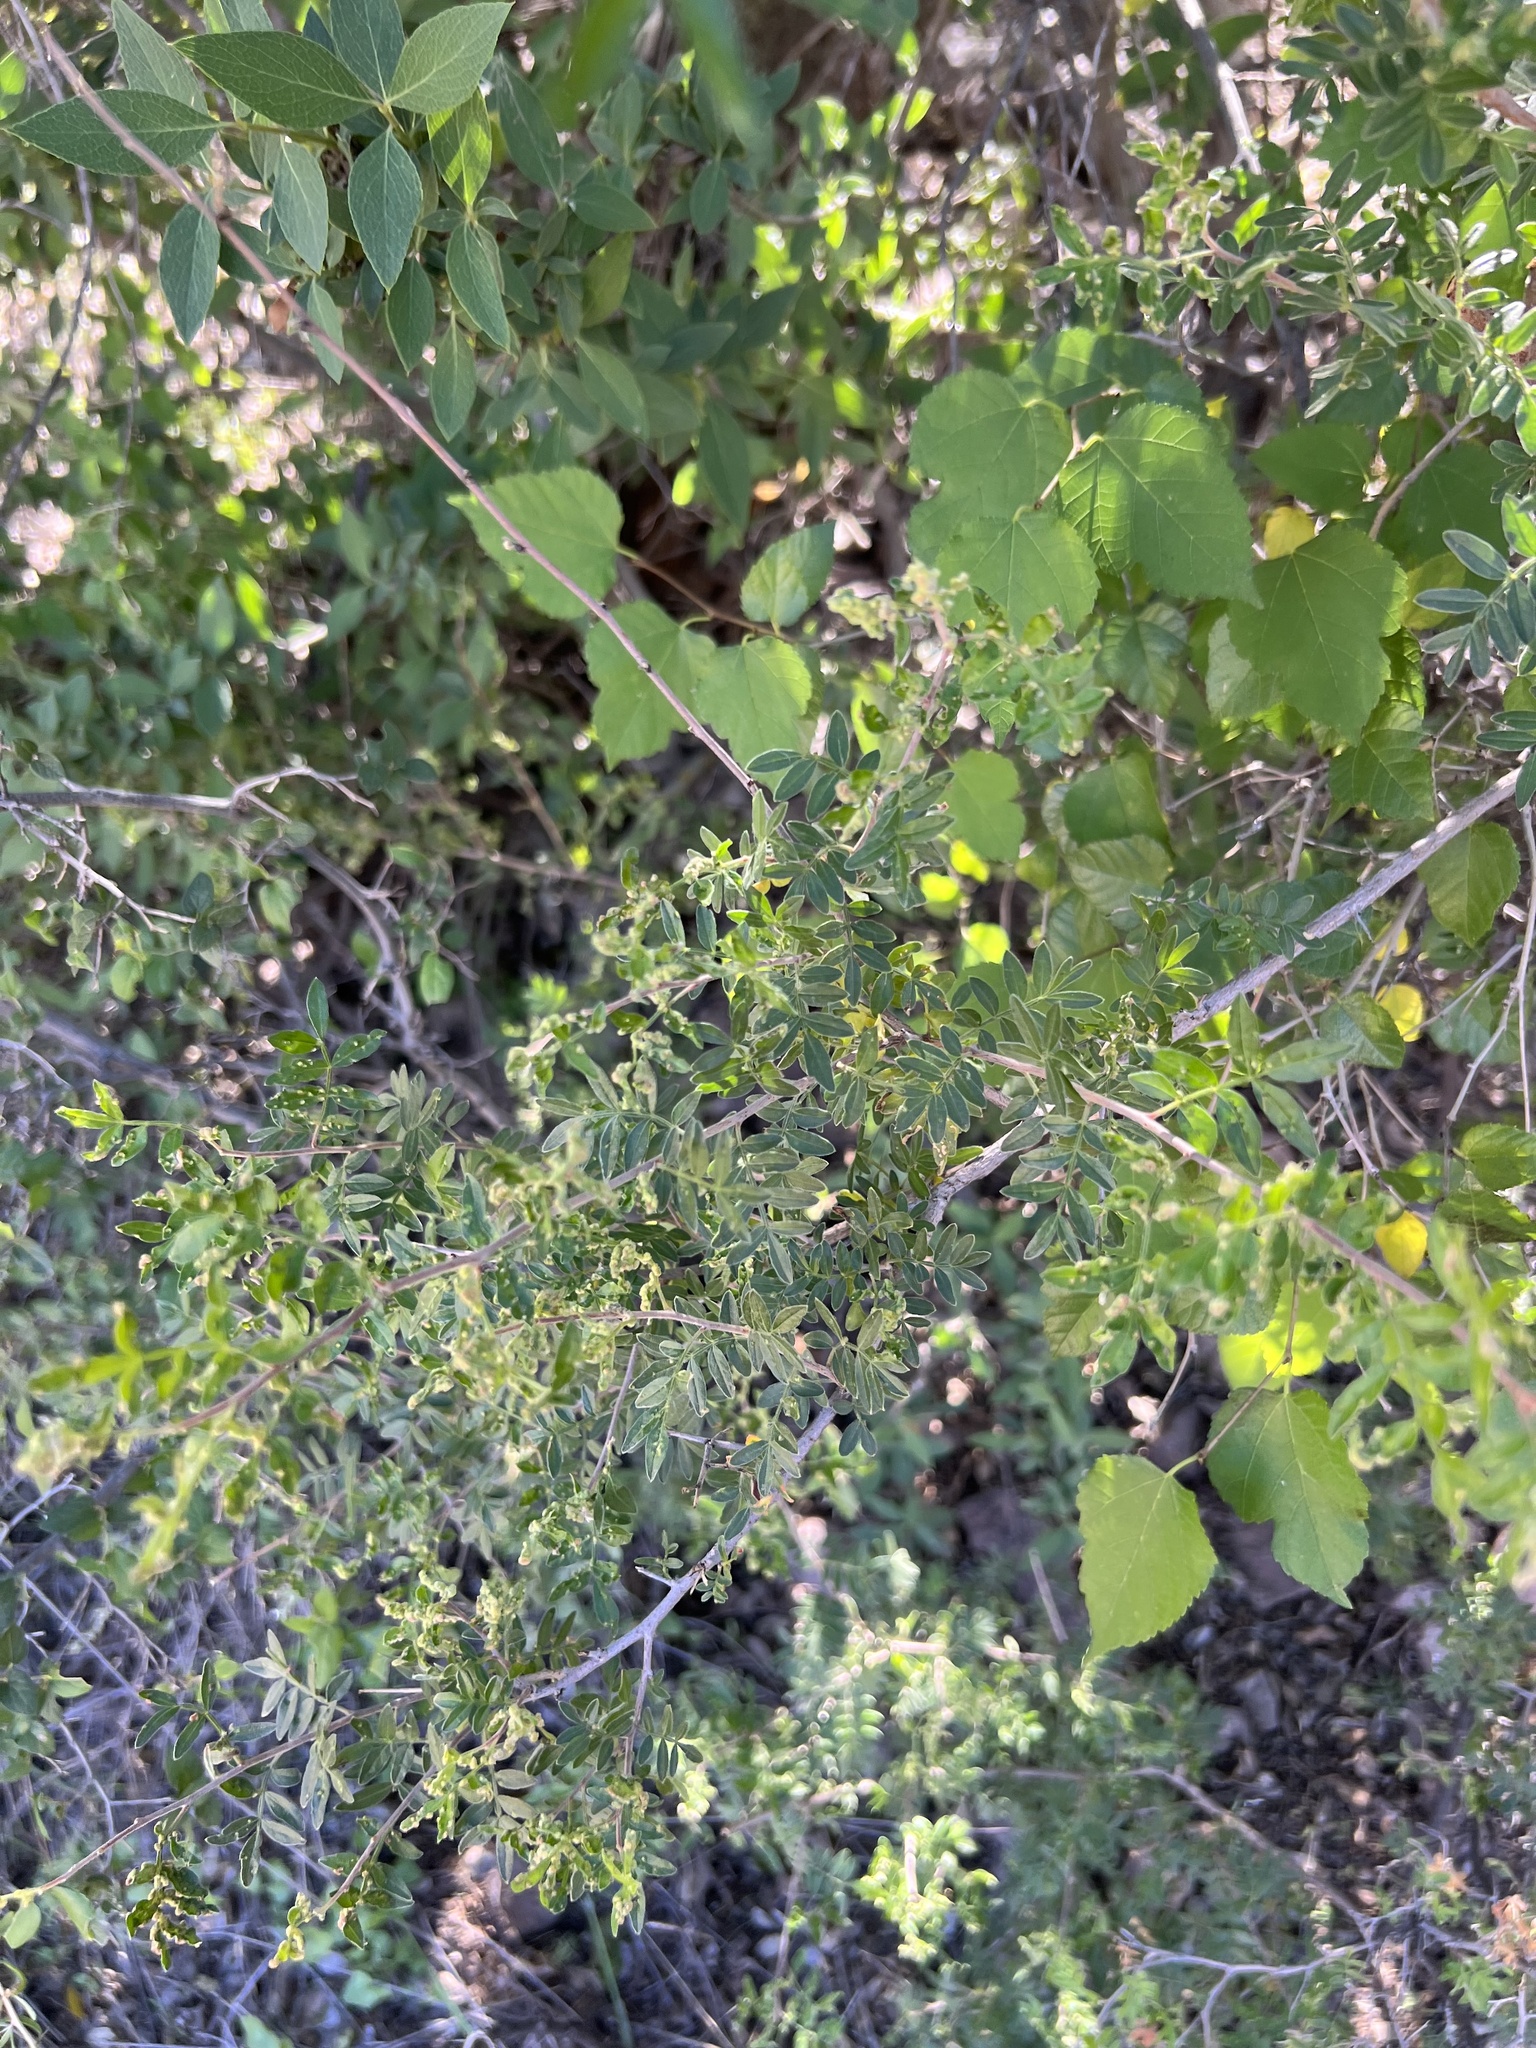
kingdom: Plantae
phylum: Tracheophyta
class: Magnoliopsida
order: Sapindales
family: Anacardiaceae
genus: Rhus
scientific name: Rhus microphylla
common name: Desert sumac
